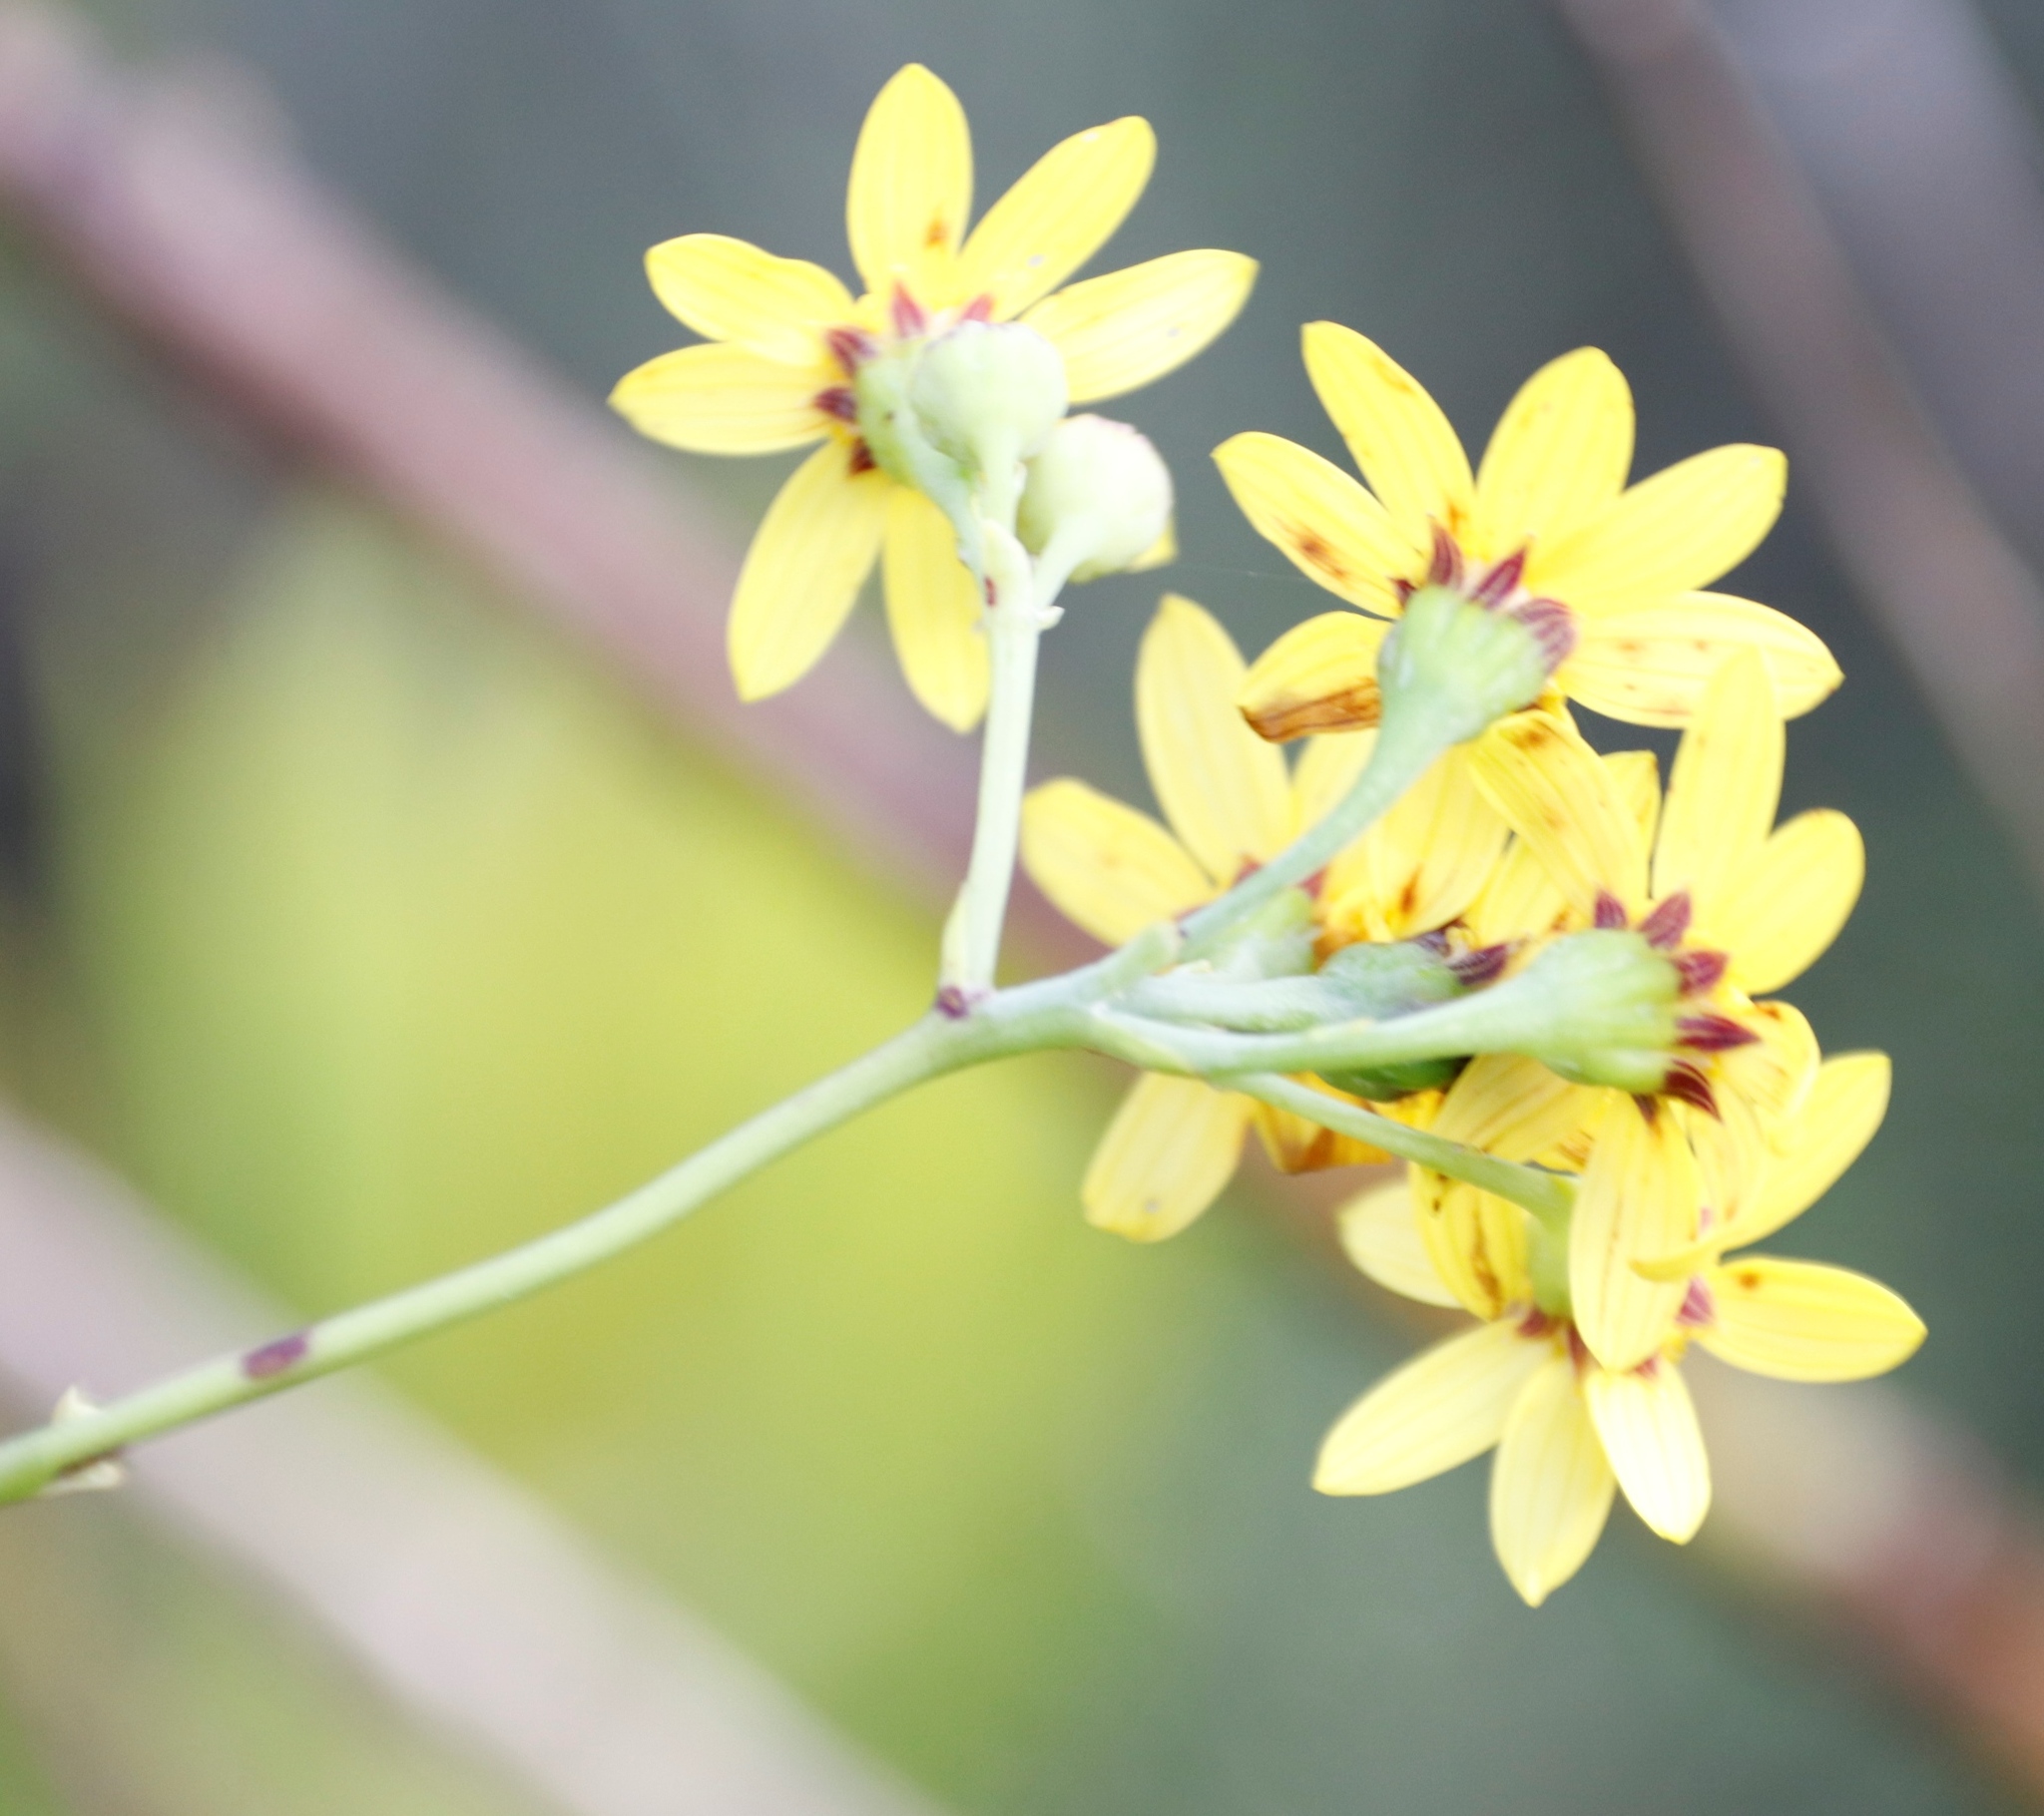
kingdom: Plantae
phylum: Tracheophyta
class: Magnoliopsida
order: Asterales
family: Asteraceae
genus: Othonna
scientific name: Othonna quinquedentata
